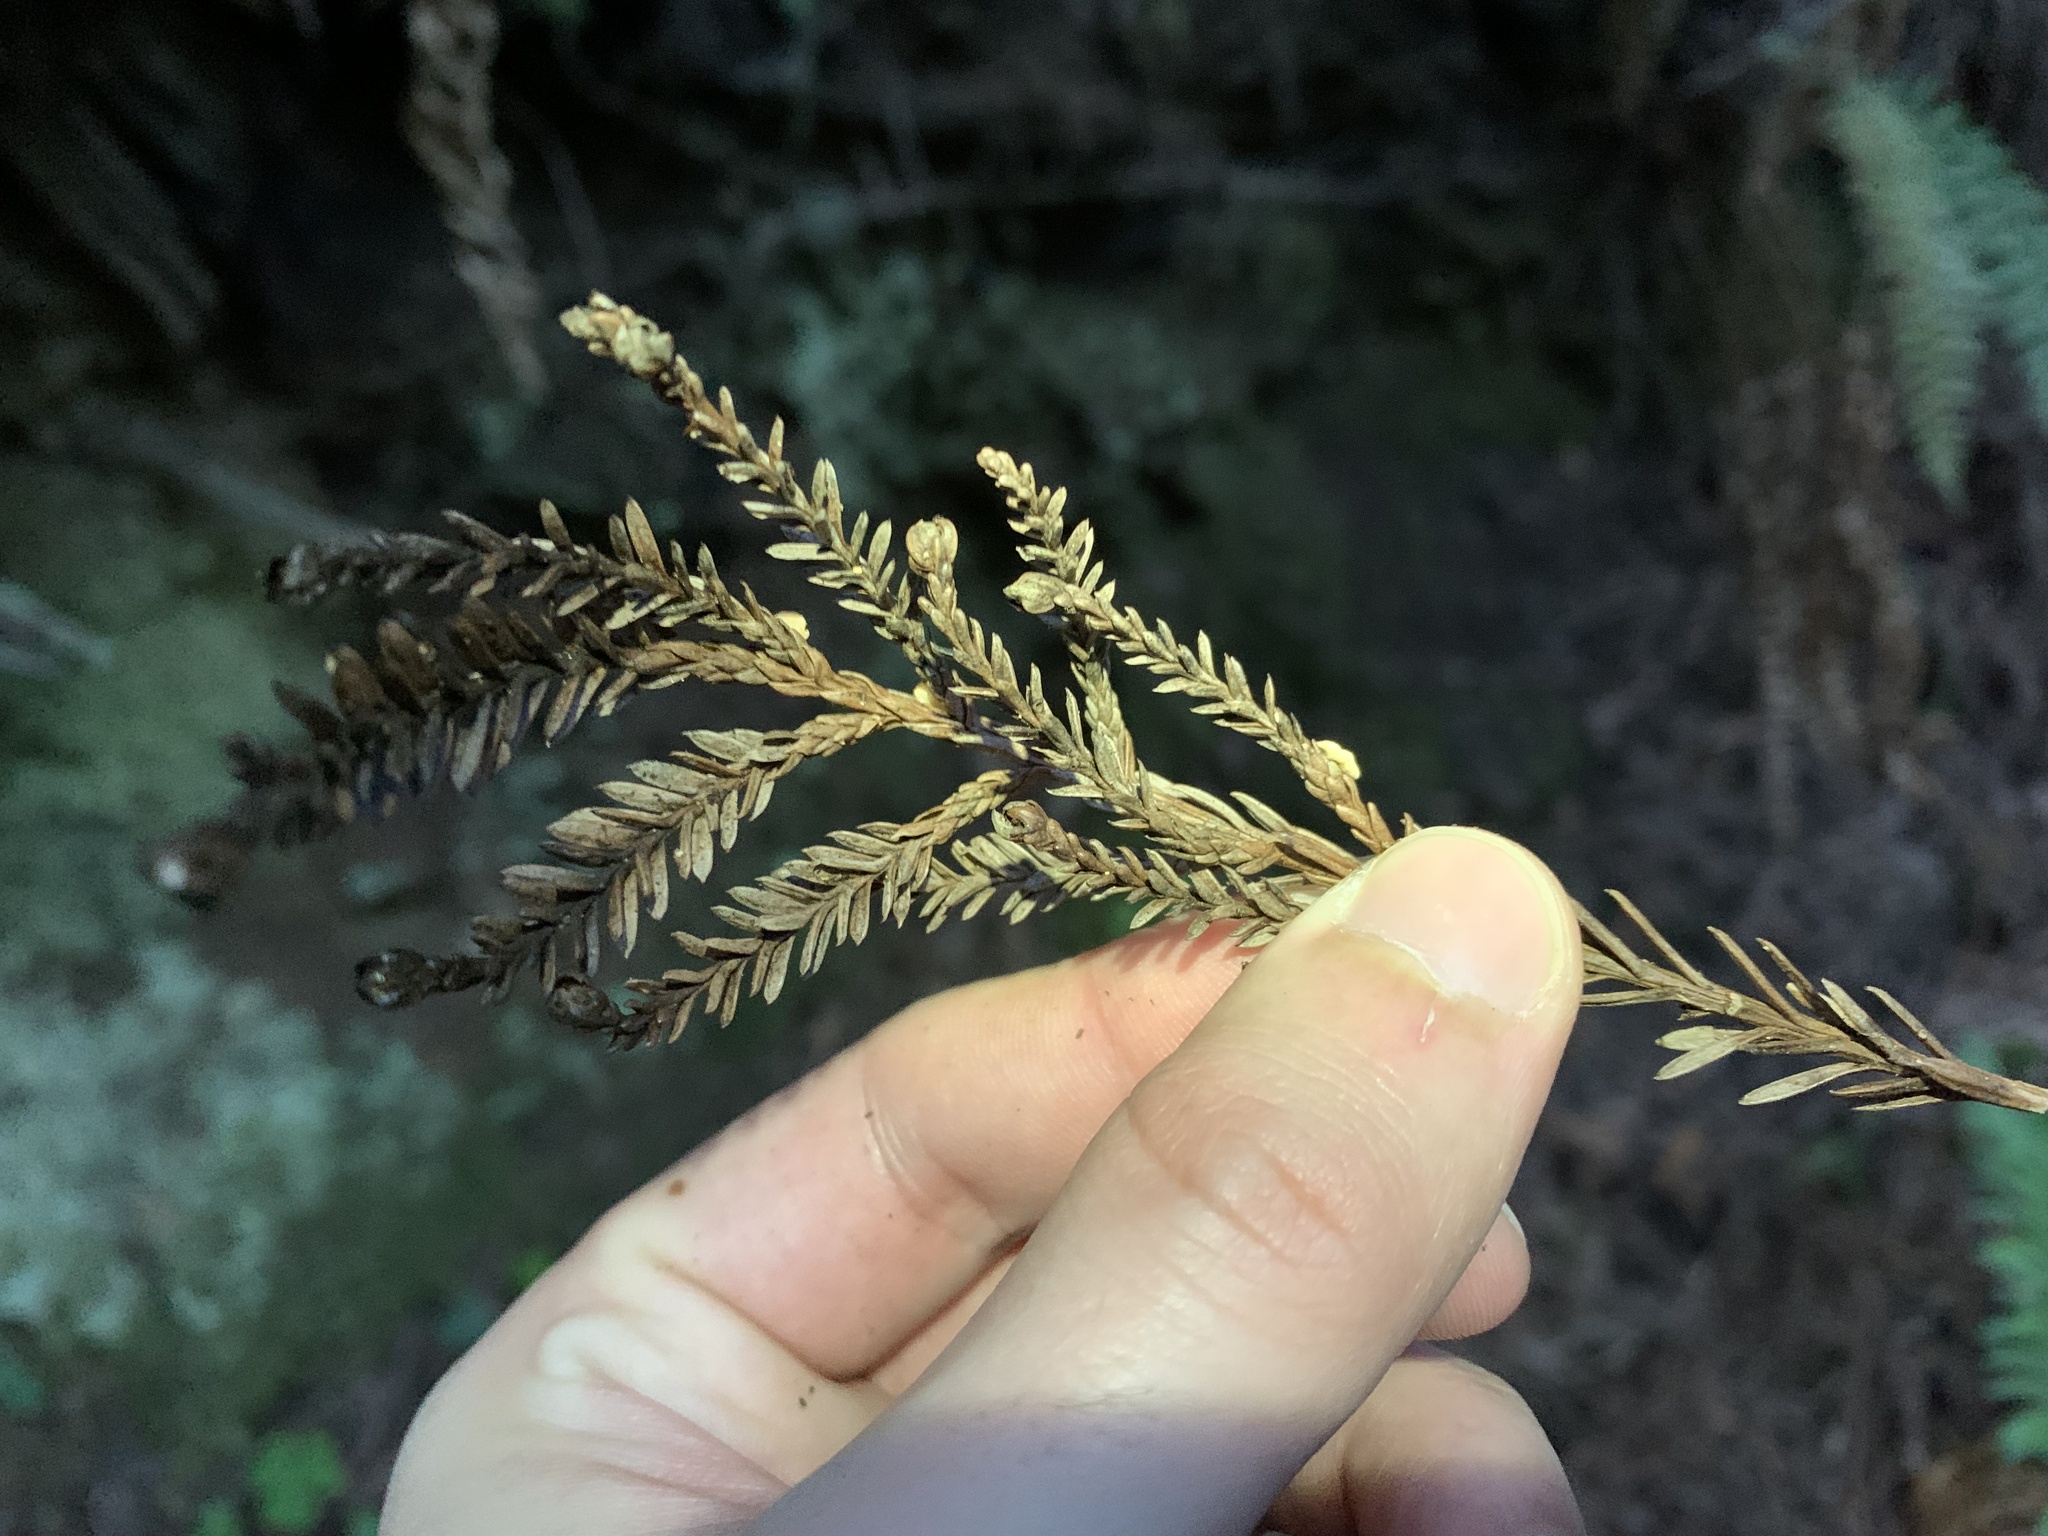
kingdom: Fungi
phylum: Ascomycota
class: Pezizomycetes
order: Pezizales
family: Sarcoscyphaceae
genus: Pithya
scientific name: Pithya cupressina
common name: Juniper disco
